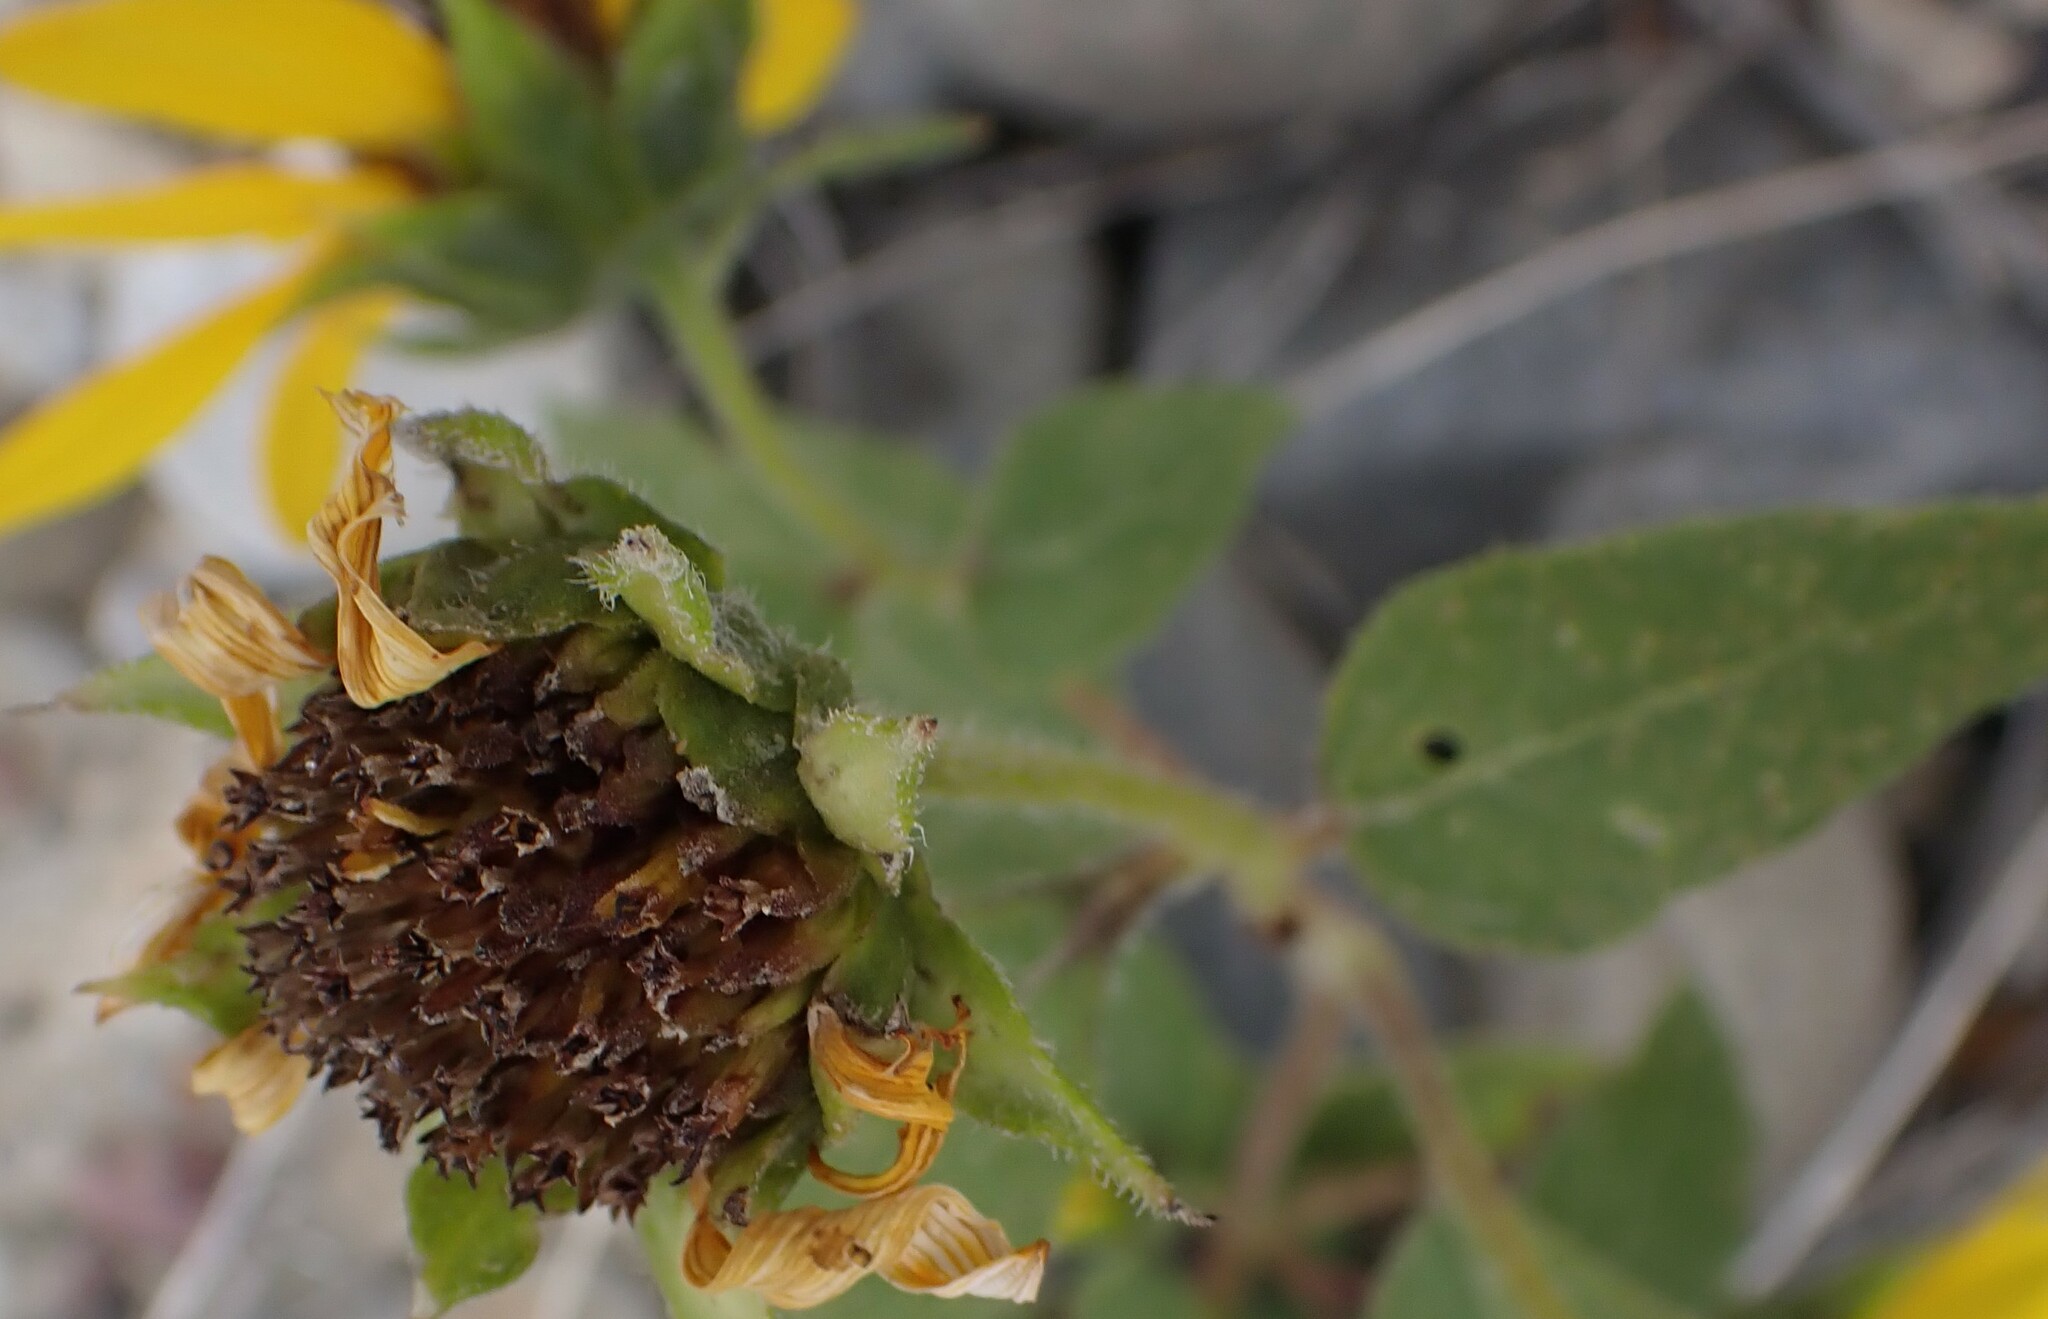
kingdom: Plantae
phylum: Tracheophyta
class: Magnoliopsida
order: Asterales
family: Asteraceae
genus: Helianthus
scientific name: Helianthus annuus
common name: Sunflower
